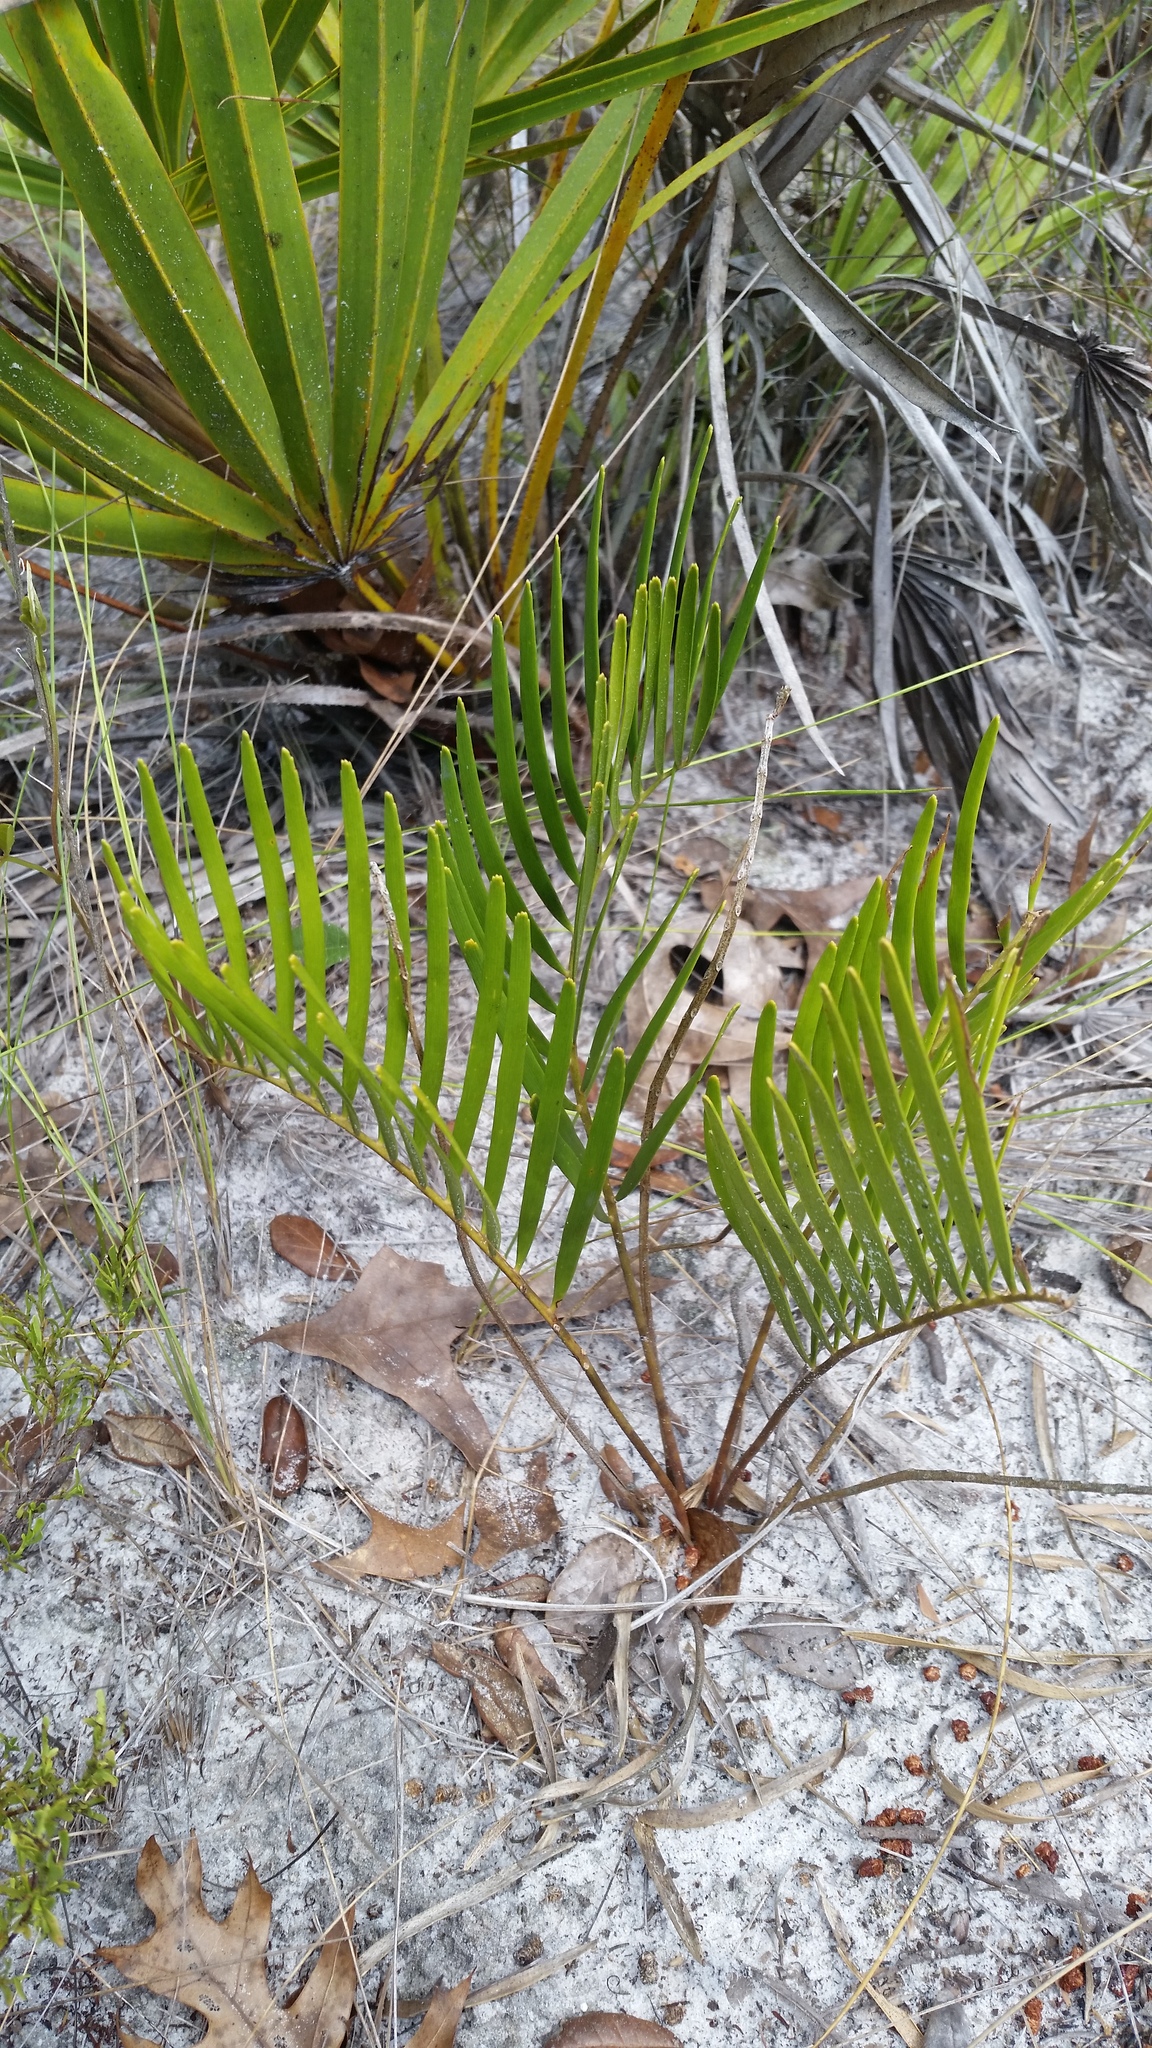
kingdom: Plantae
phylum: Tracheophyta
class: Cycadopsida
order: Cycadales
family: Zamiaceae
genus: Zamia
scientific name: Zamia integrifolia
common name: Florida arrowroot
